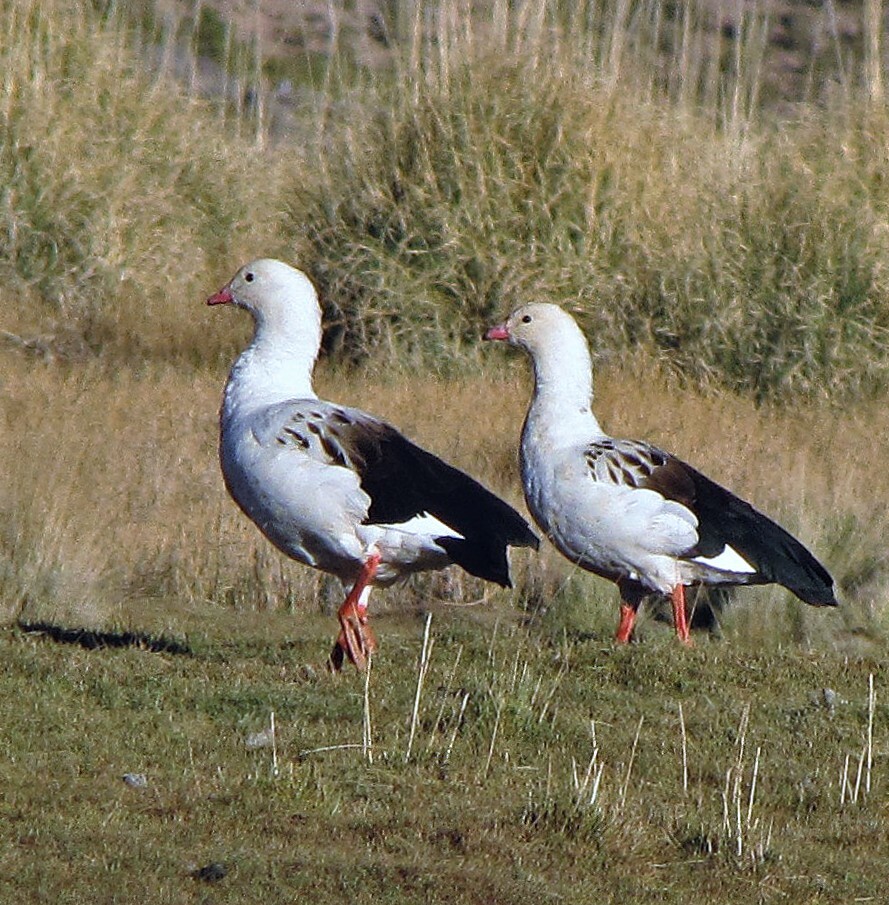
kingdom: Animalia
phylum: Chordata
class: Aves
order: Anseriformes
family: Anatidae
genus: Chloephaga
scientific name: Chloephaga melanoptera
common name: Andean goose
